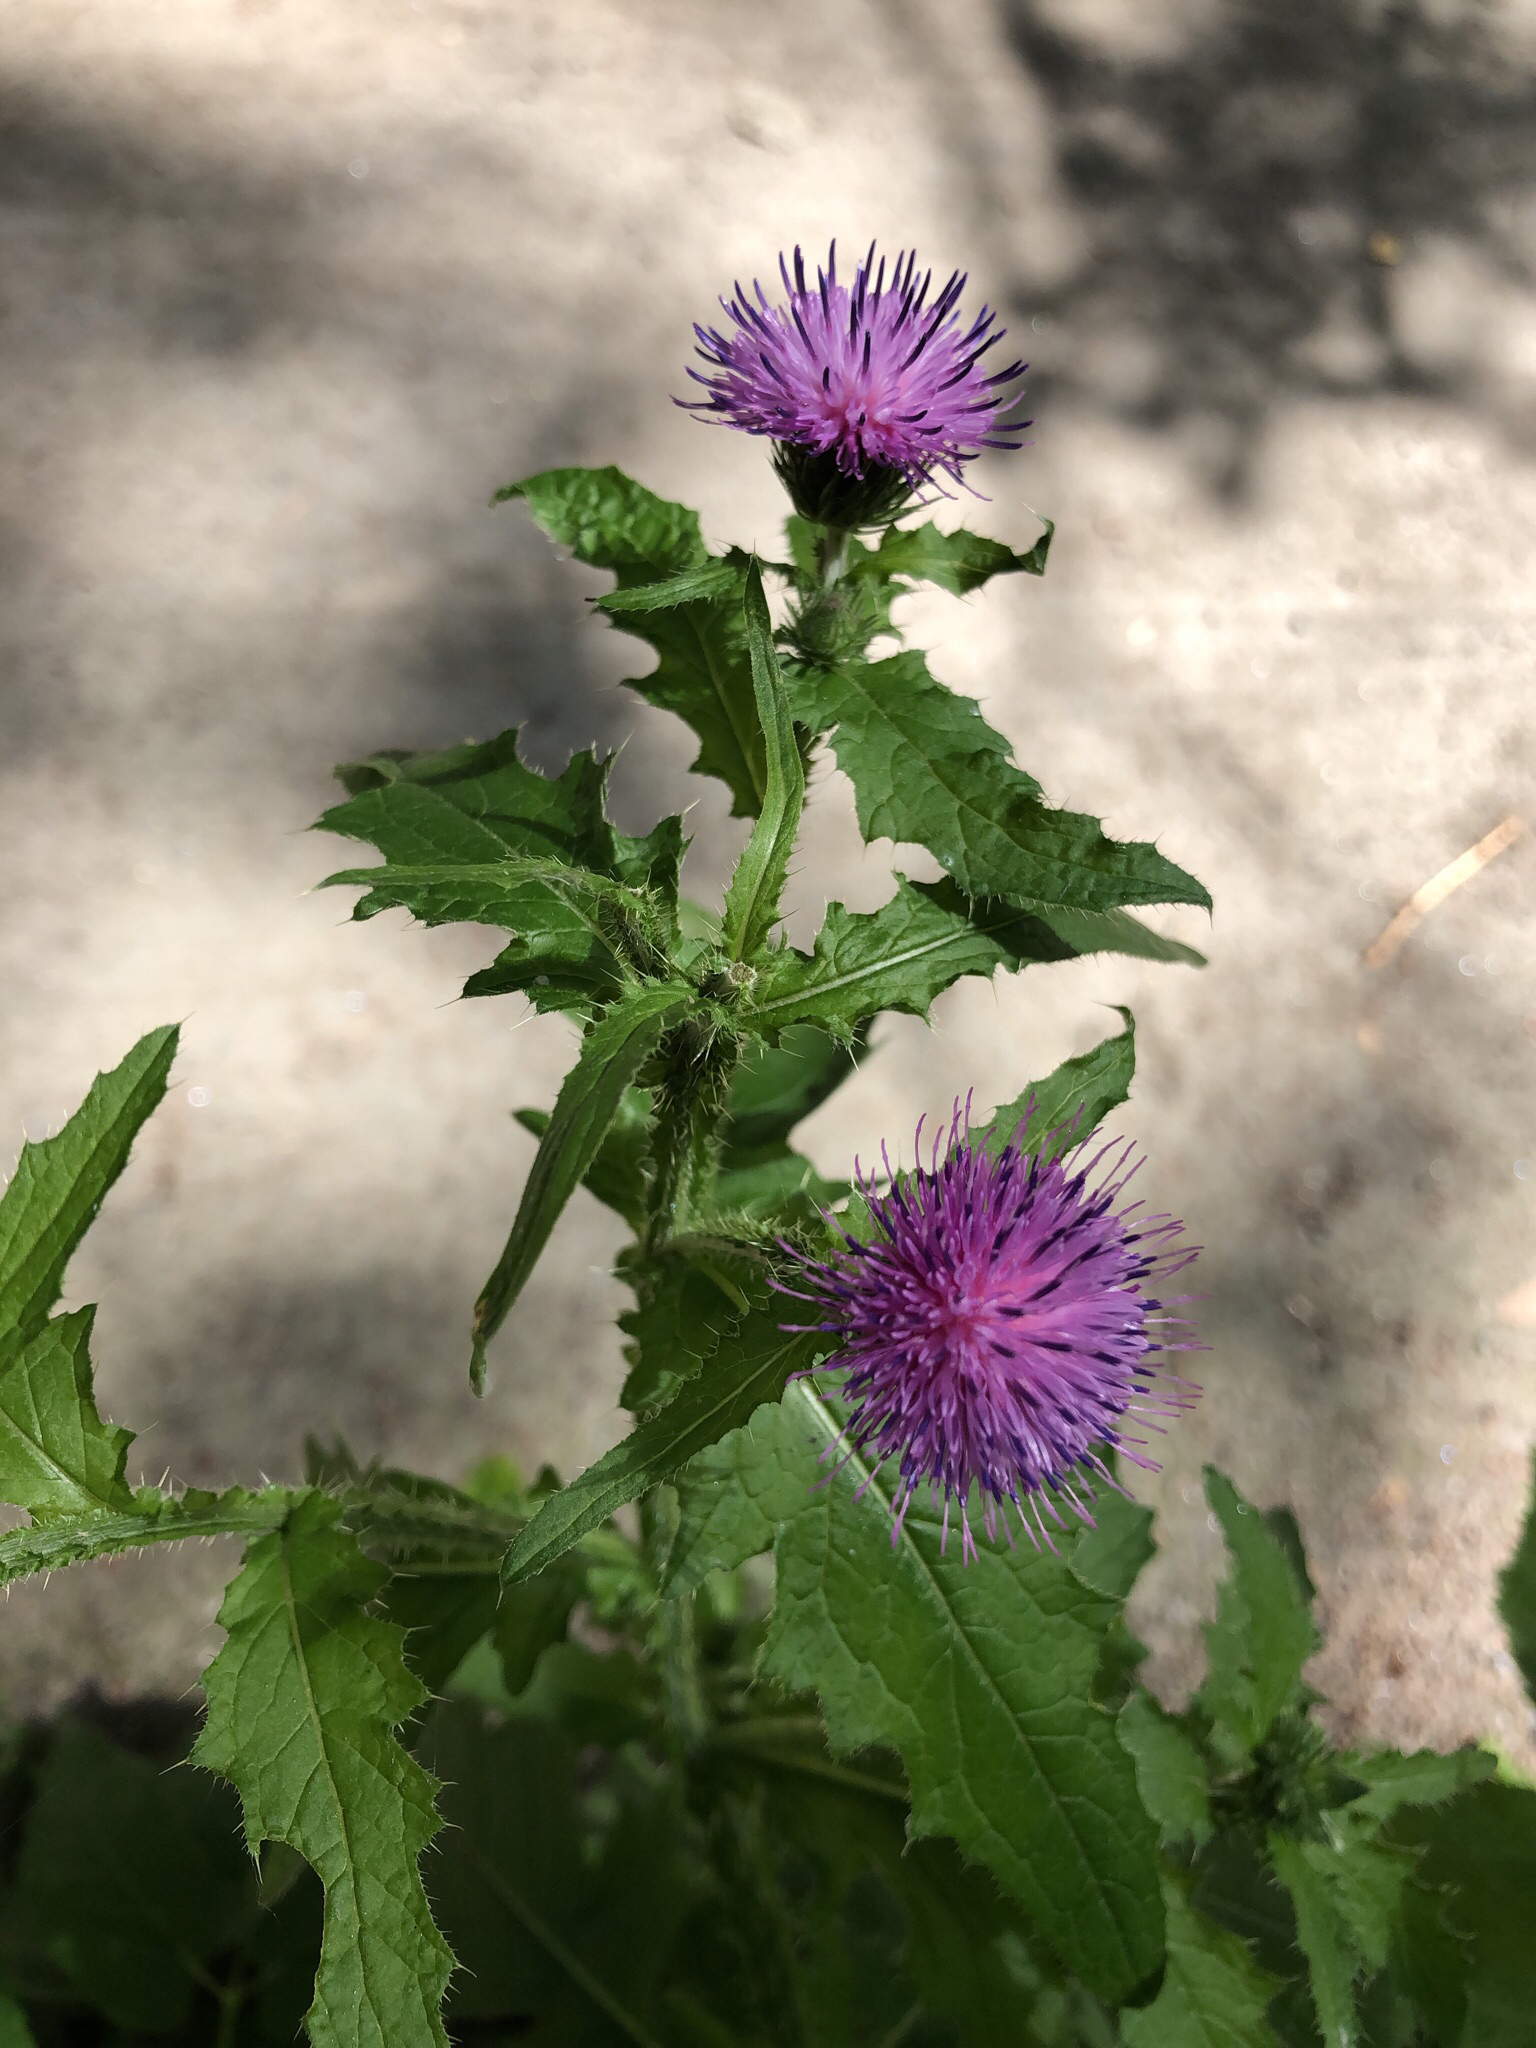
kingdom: Plantae
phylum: Tracheophyta
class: Magnoliopsida
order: Asterales
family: Asteraceae
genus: Carduus
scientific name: Carduus crispus
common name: Welted thistle
